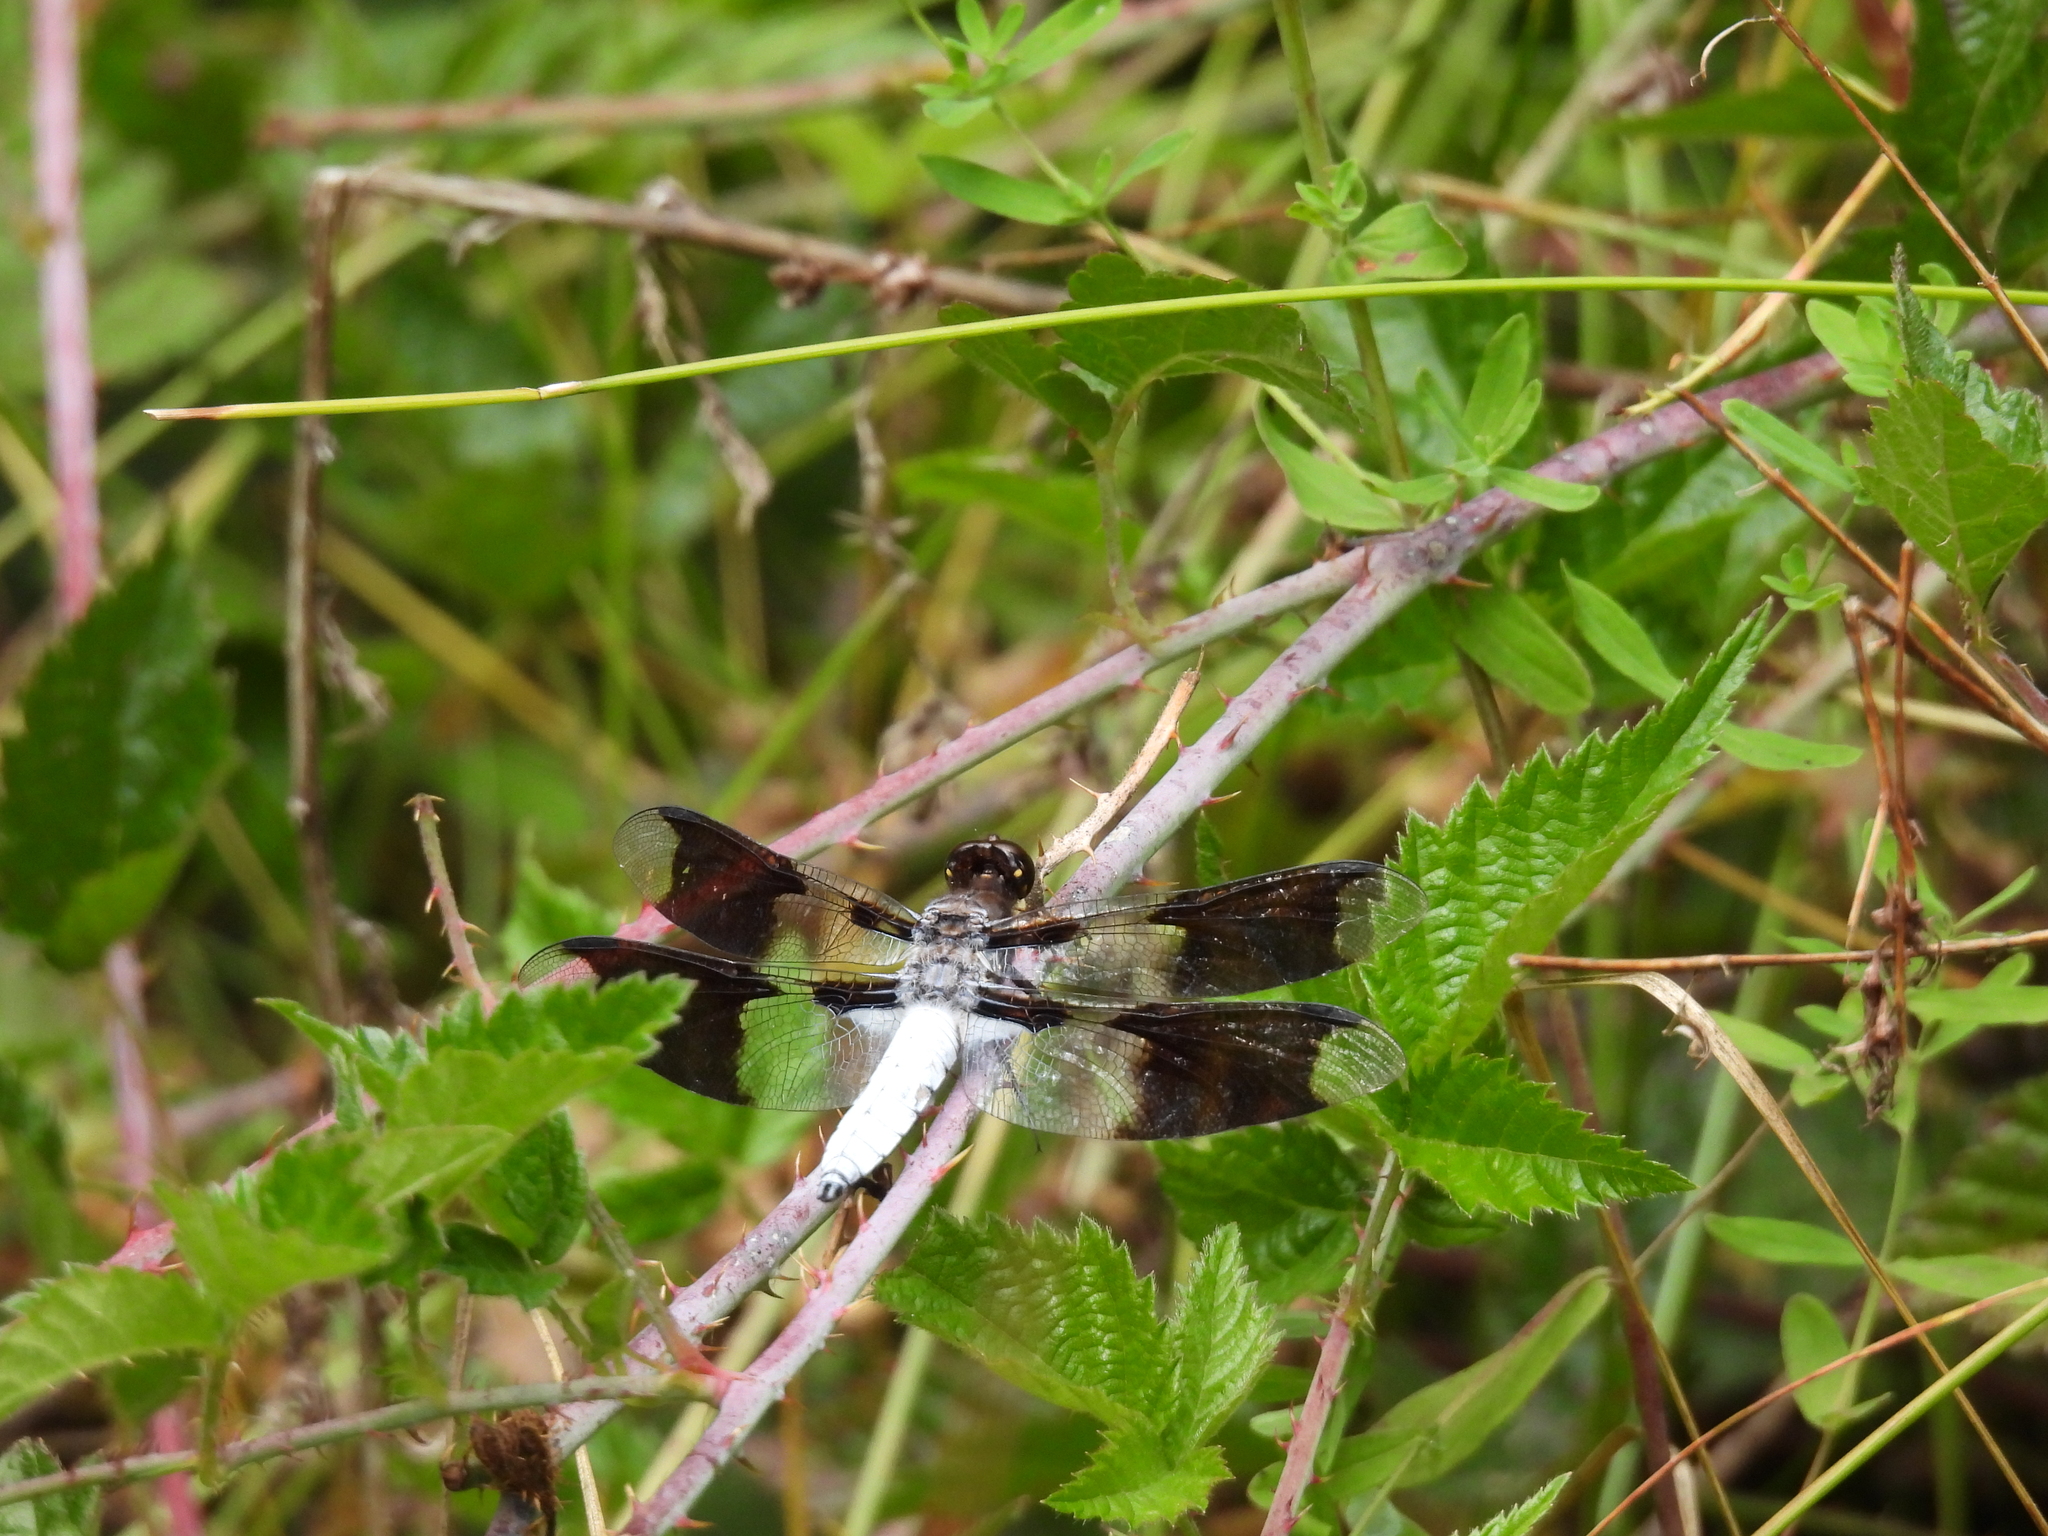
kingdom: Animalia
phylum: Arthropoda
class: Insecta
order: Odonata
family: Libellulidae
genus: Plathemis
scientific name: Plathemis lydia
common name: Common whitetail
